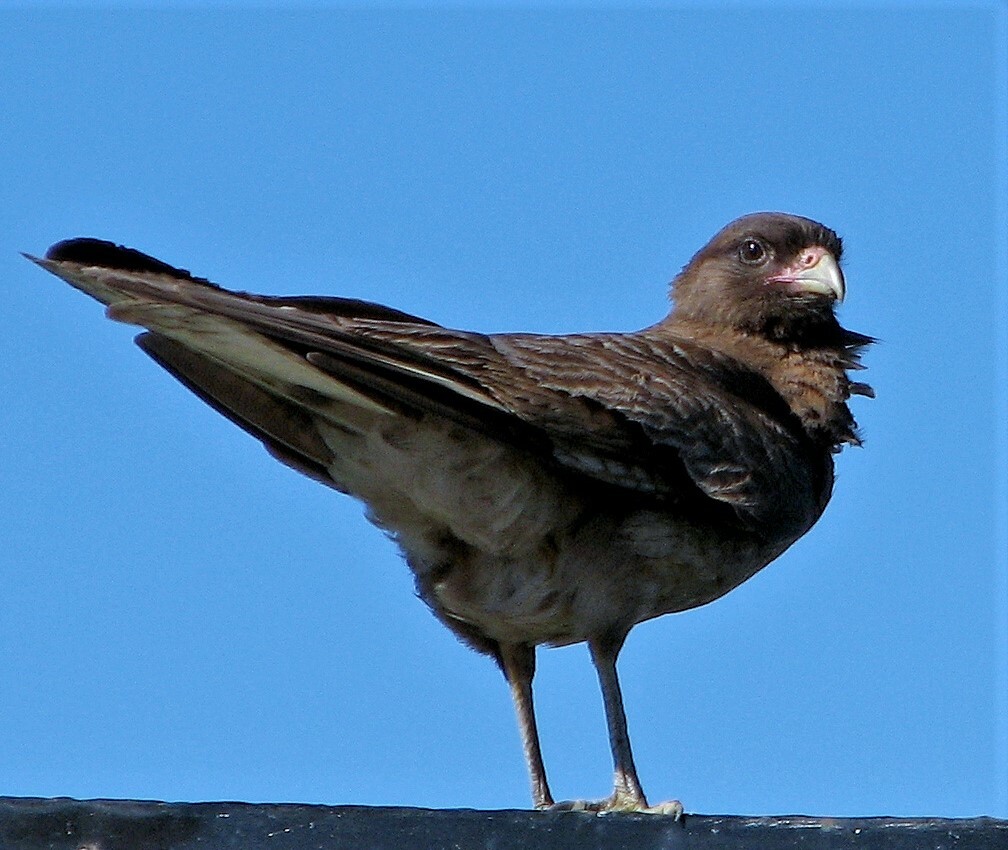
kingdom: Animalia
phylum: Chordata
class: Aves
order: Falconiformes
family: Falconidae
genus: Daptrius
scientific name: Daptrius
